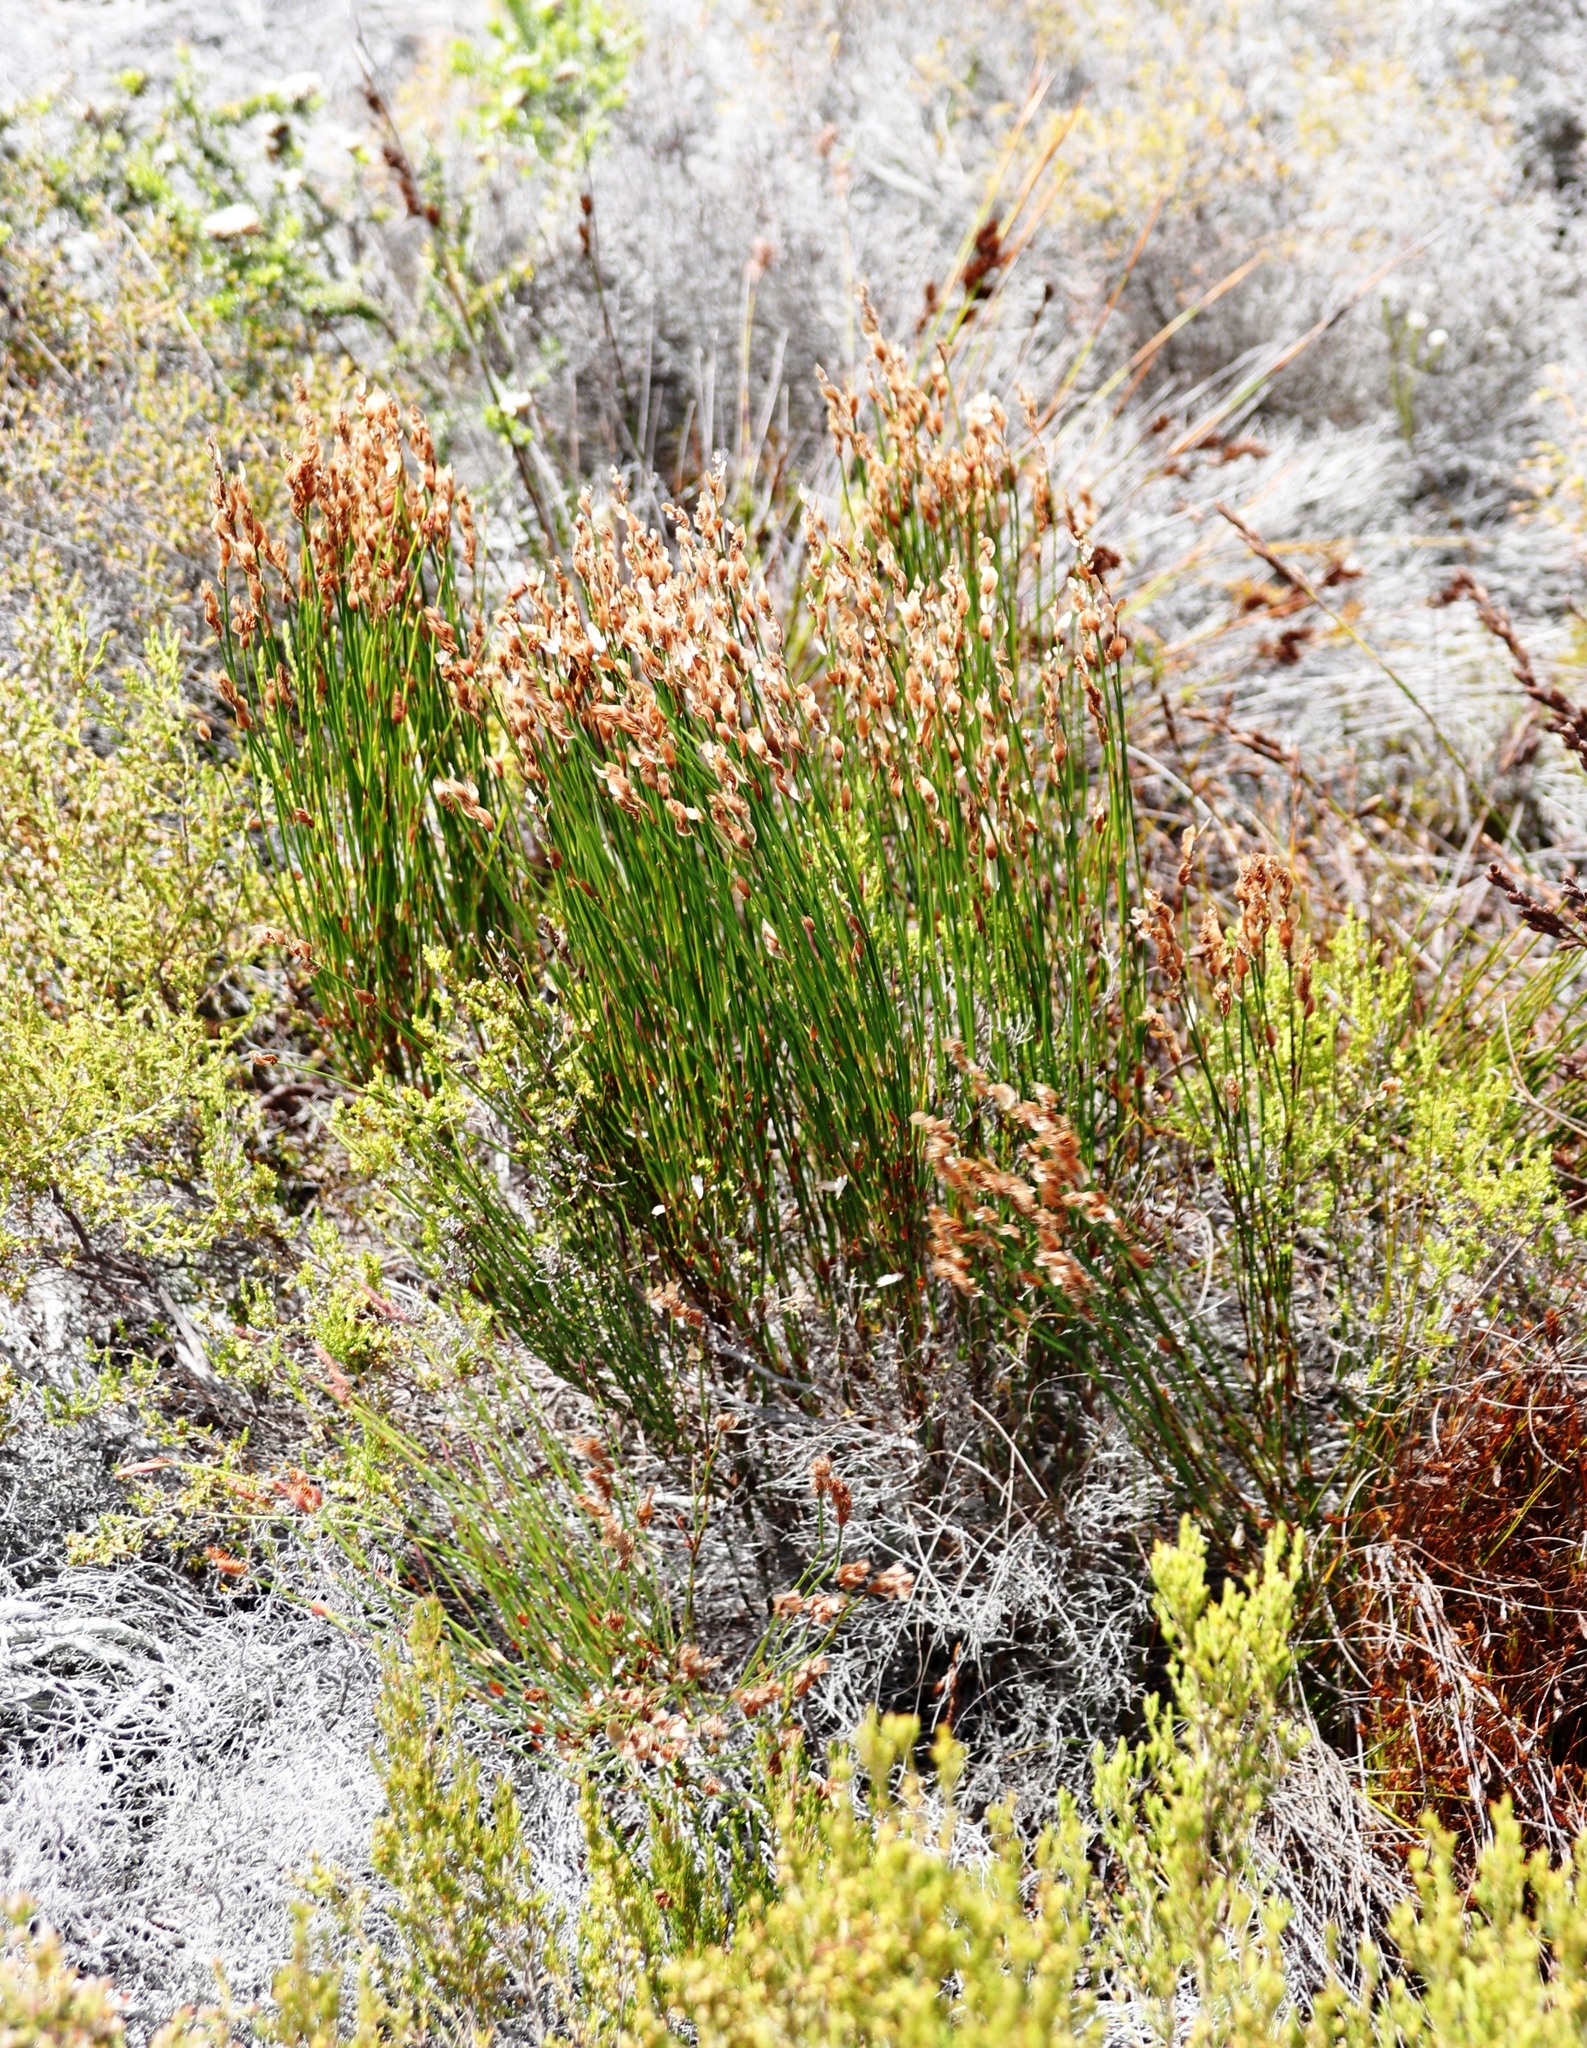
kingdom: Plantae
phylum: Tracheophyta
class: Liliopsida
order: Poales
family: Restionaceae
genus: Elegia
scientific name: Elegia stipularis
